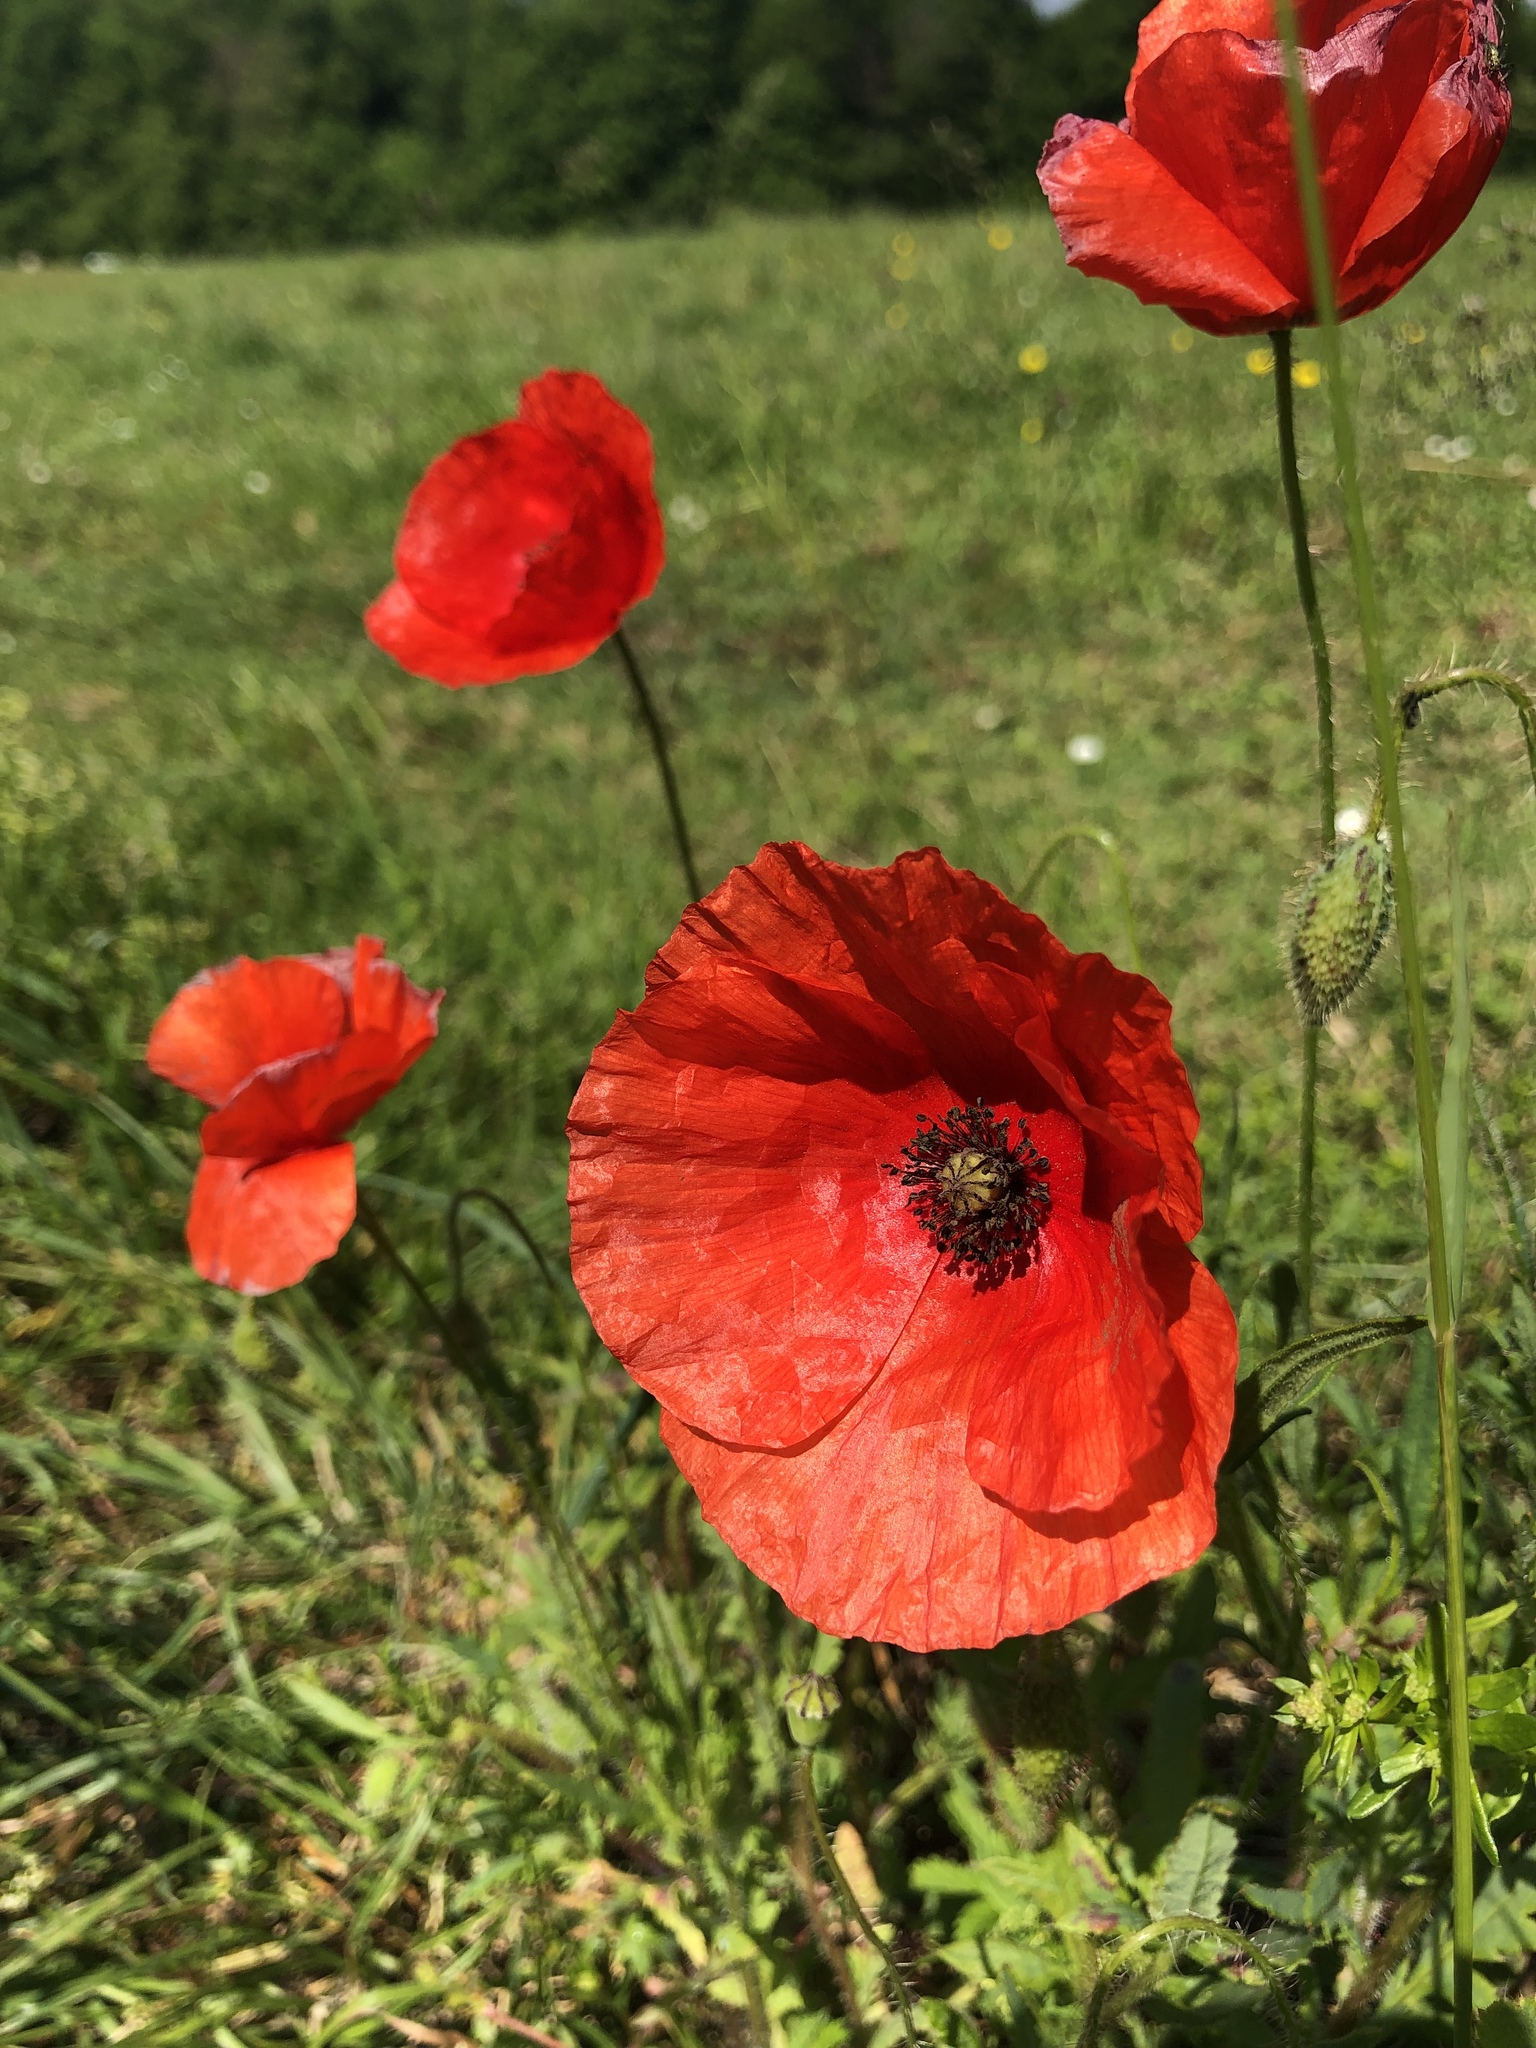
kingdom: Plantae
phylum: Tracheophyta
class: Magnoliopsida
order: Ranunculales
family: Papaveraceae
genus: Papaver
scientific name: Papaver rhoeas
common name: Corn poppy
